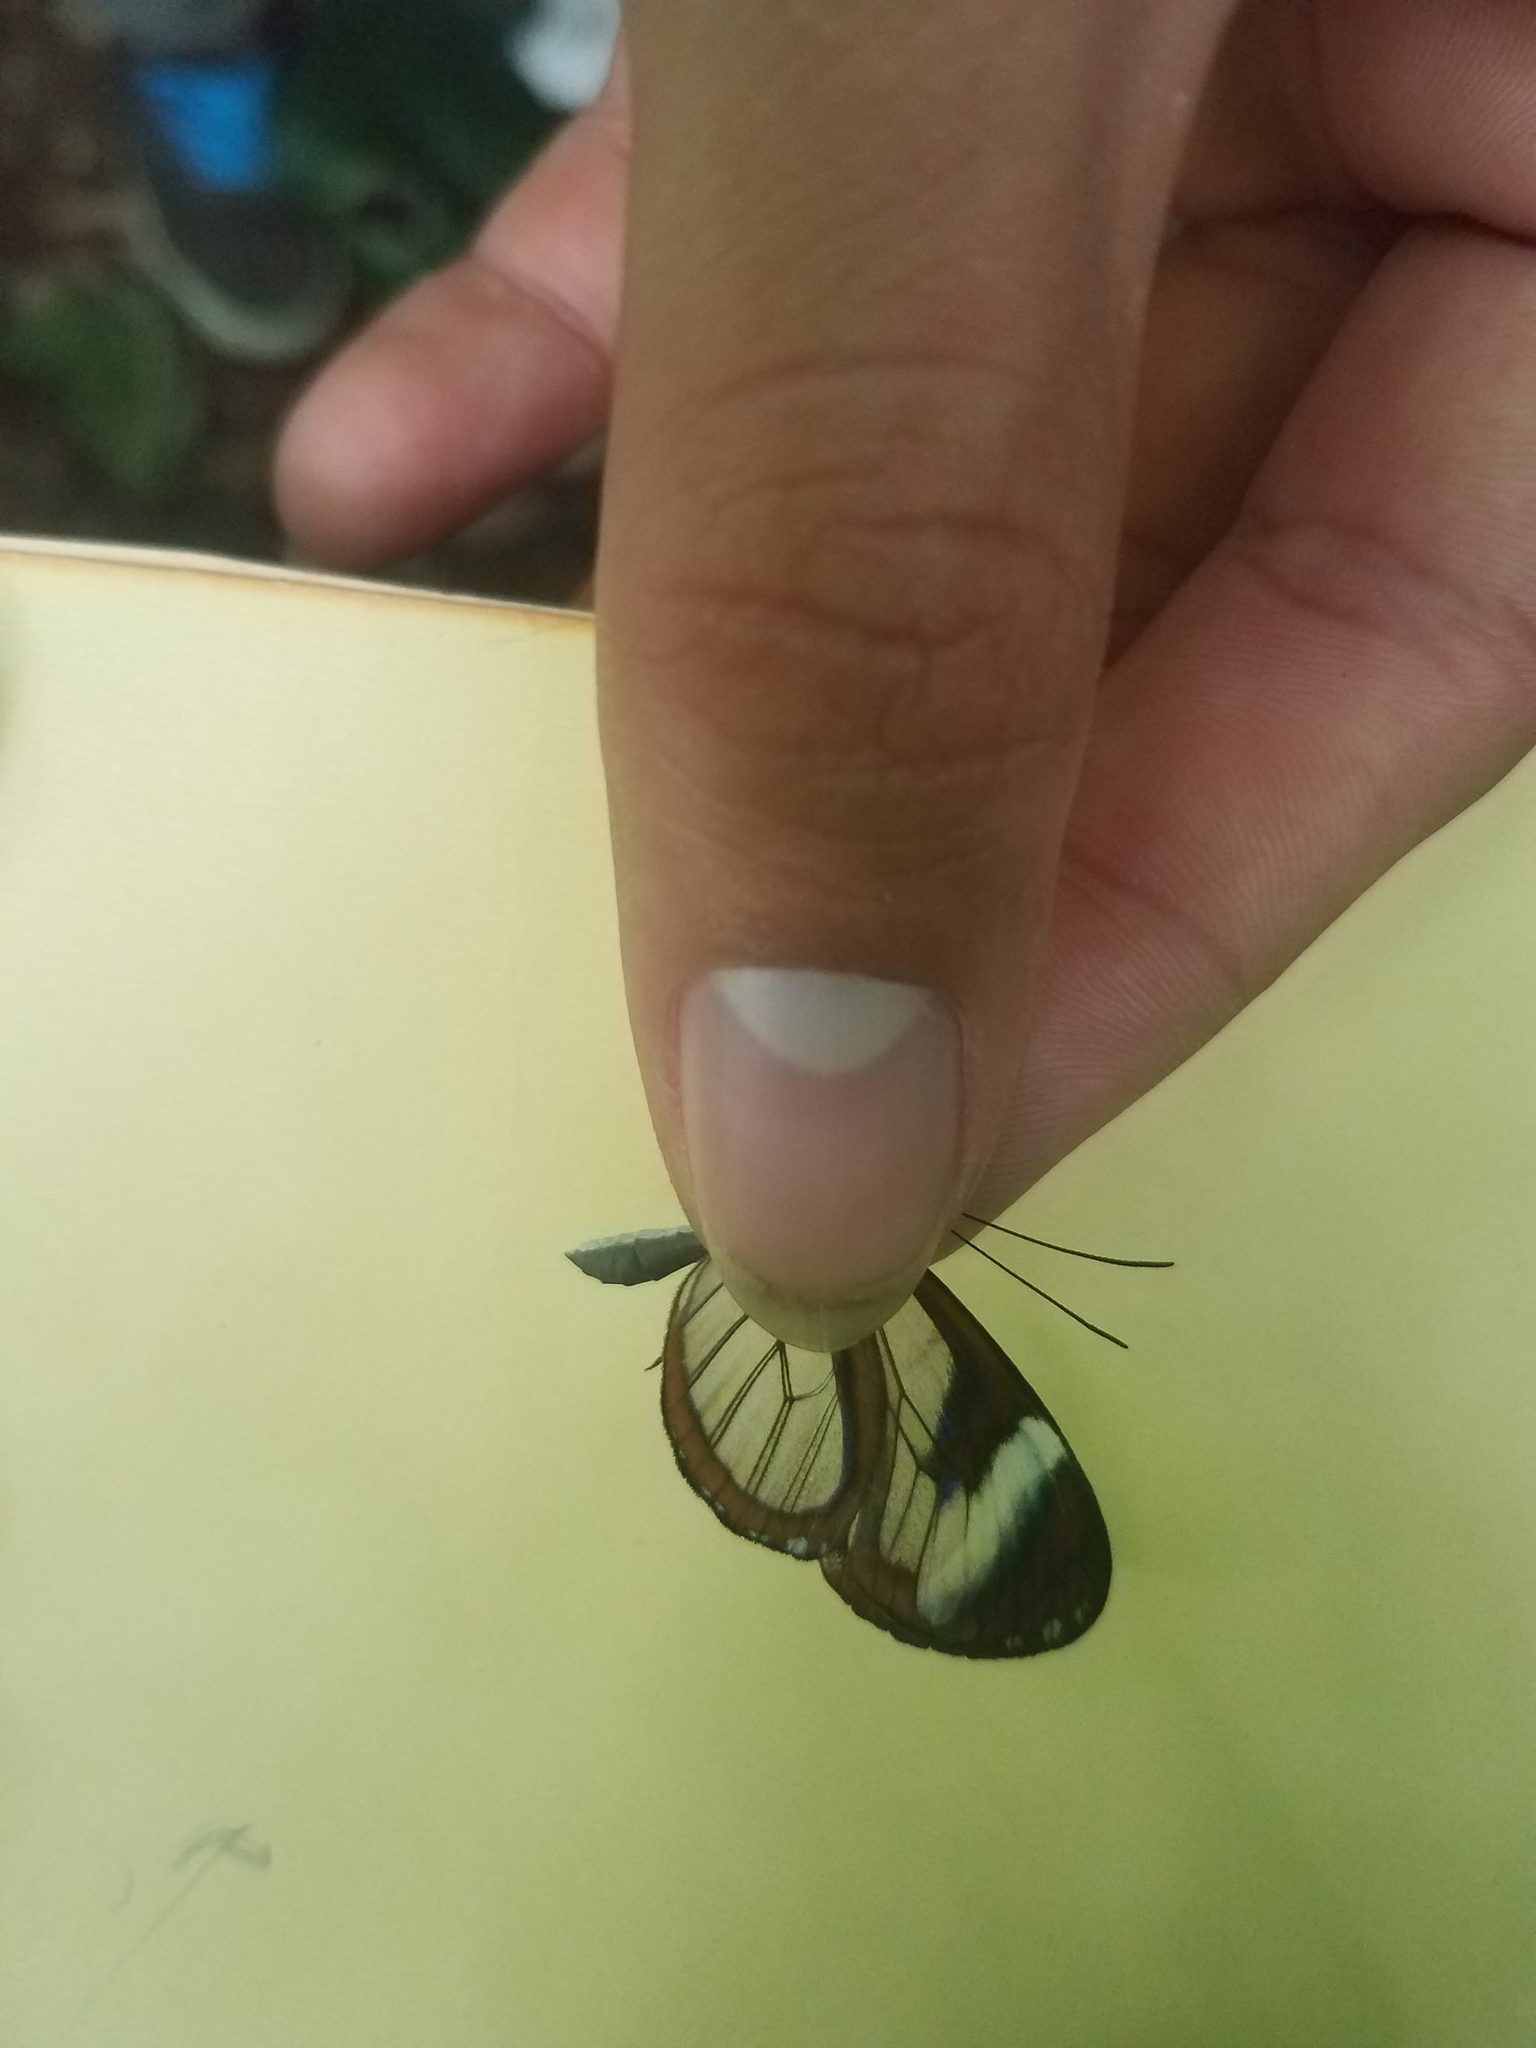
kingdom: Animalia
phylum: Arthropoda
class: Insecta
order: Lepidoptera
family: Nymphalidae
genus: Oleria
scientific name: Oleria paula
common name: Paula's clearwing
